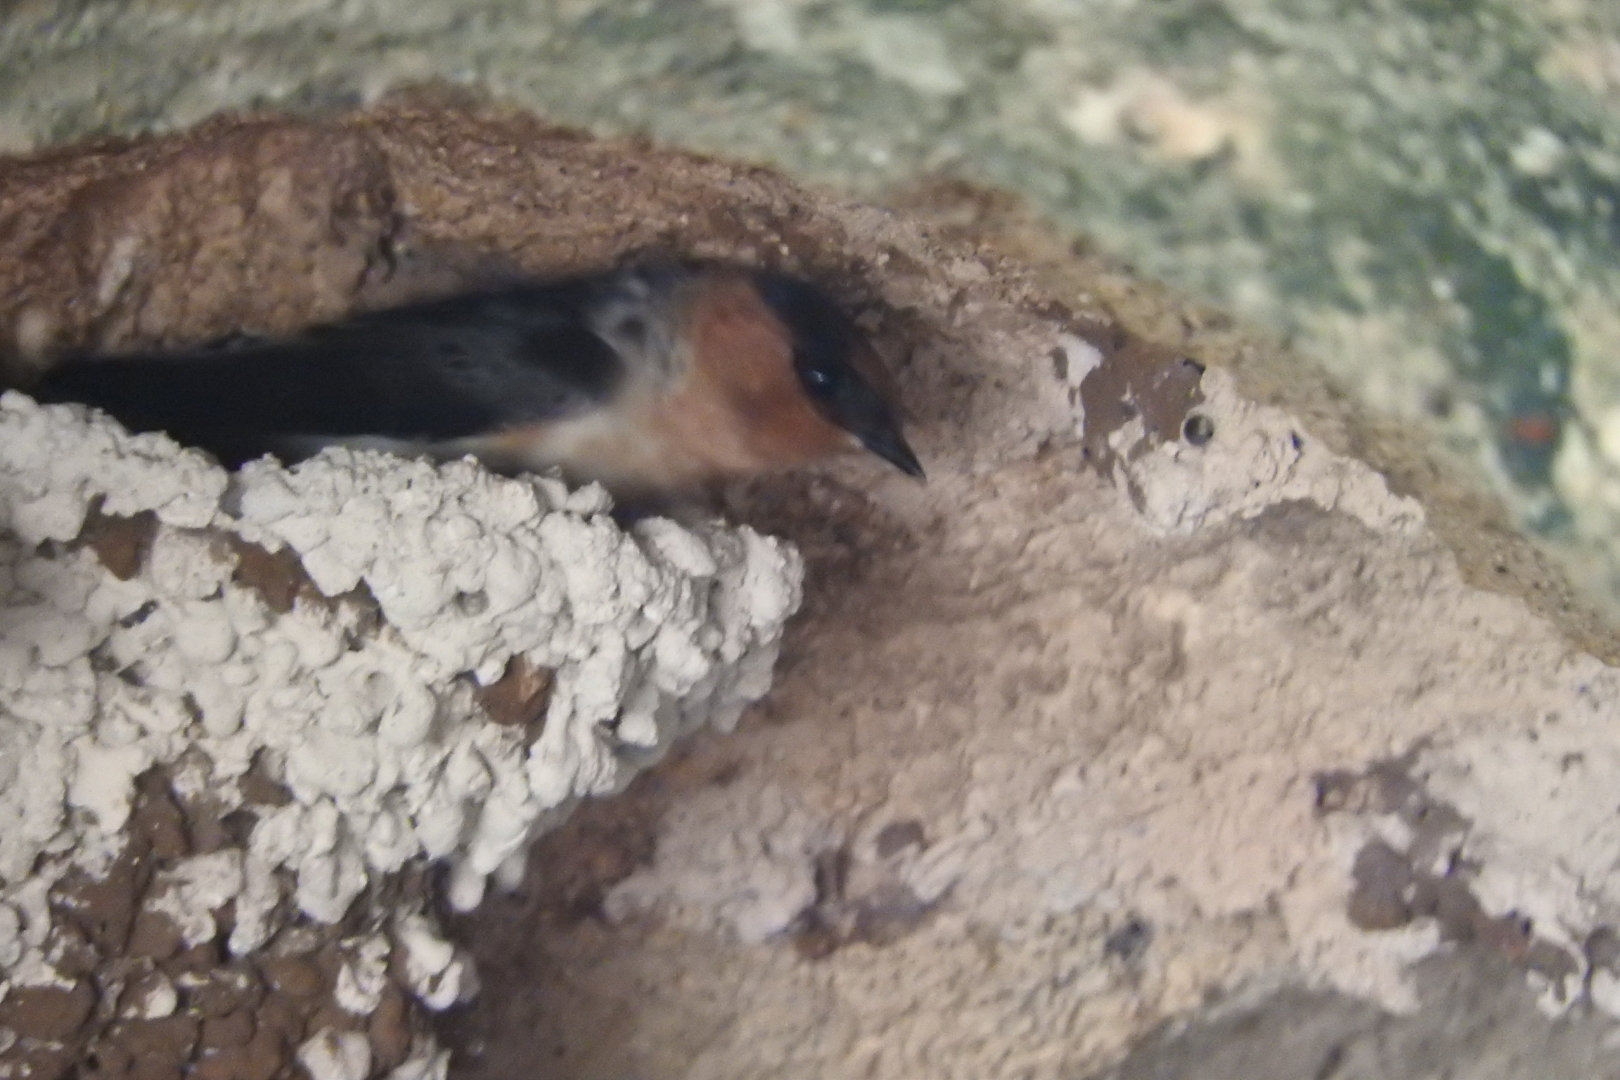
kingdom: Animalia
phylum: Chordata
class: Aves
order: Passeriformes
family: Hirundinidae
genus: Petrochelidon
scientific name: Petrochelidon fulva
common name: Cave swallow
